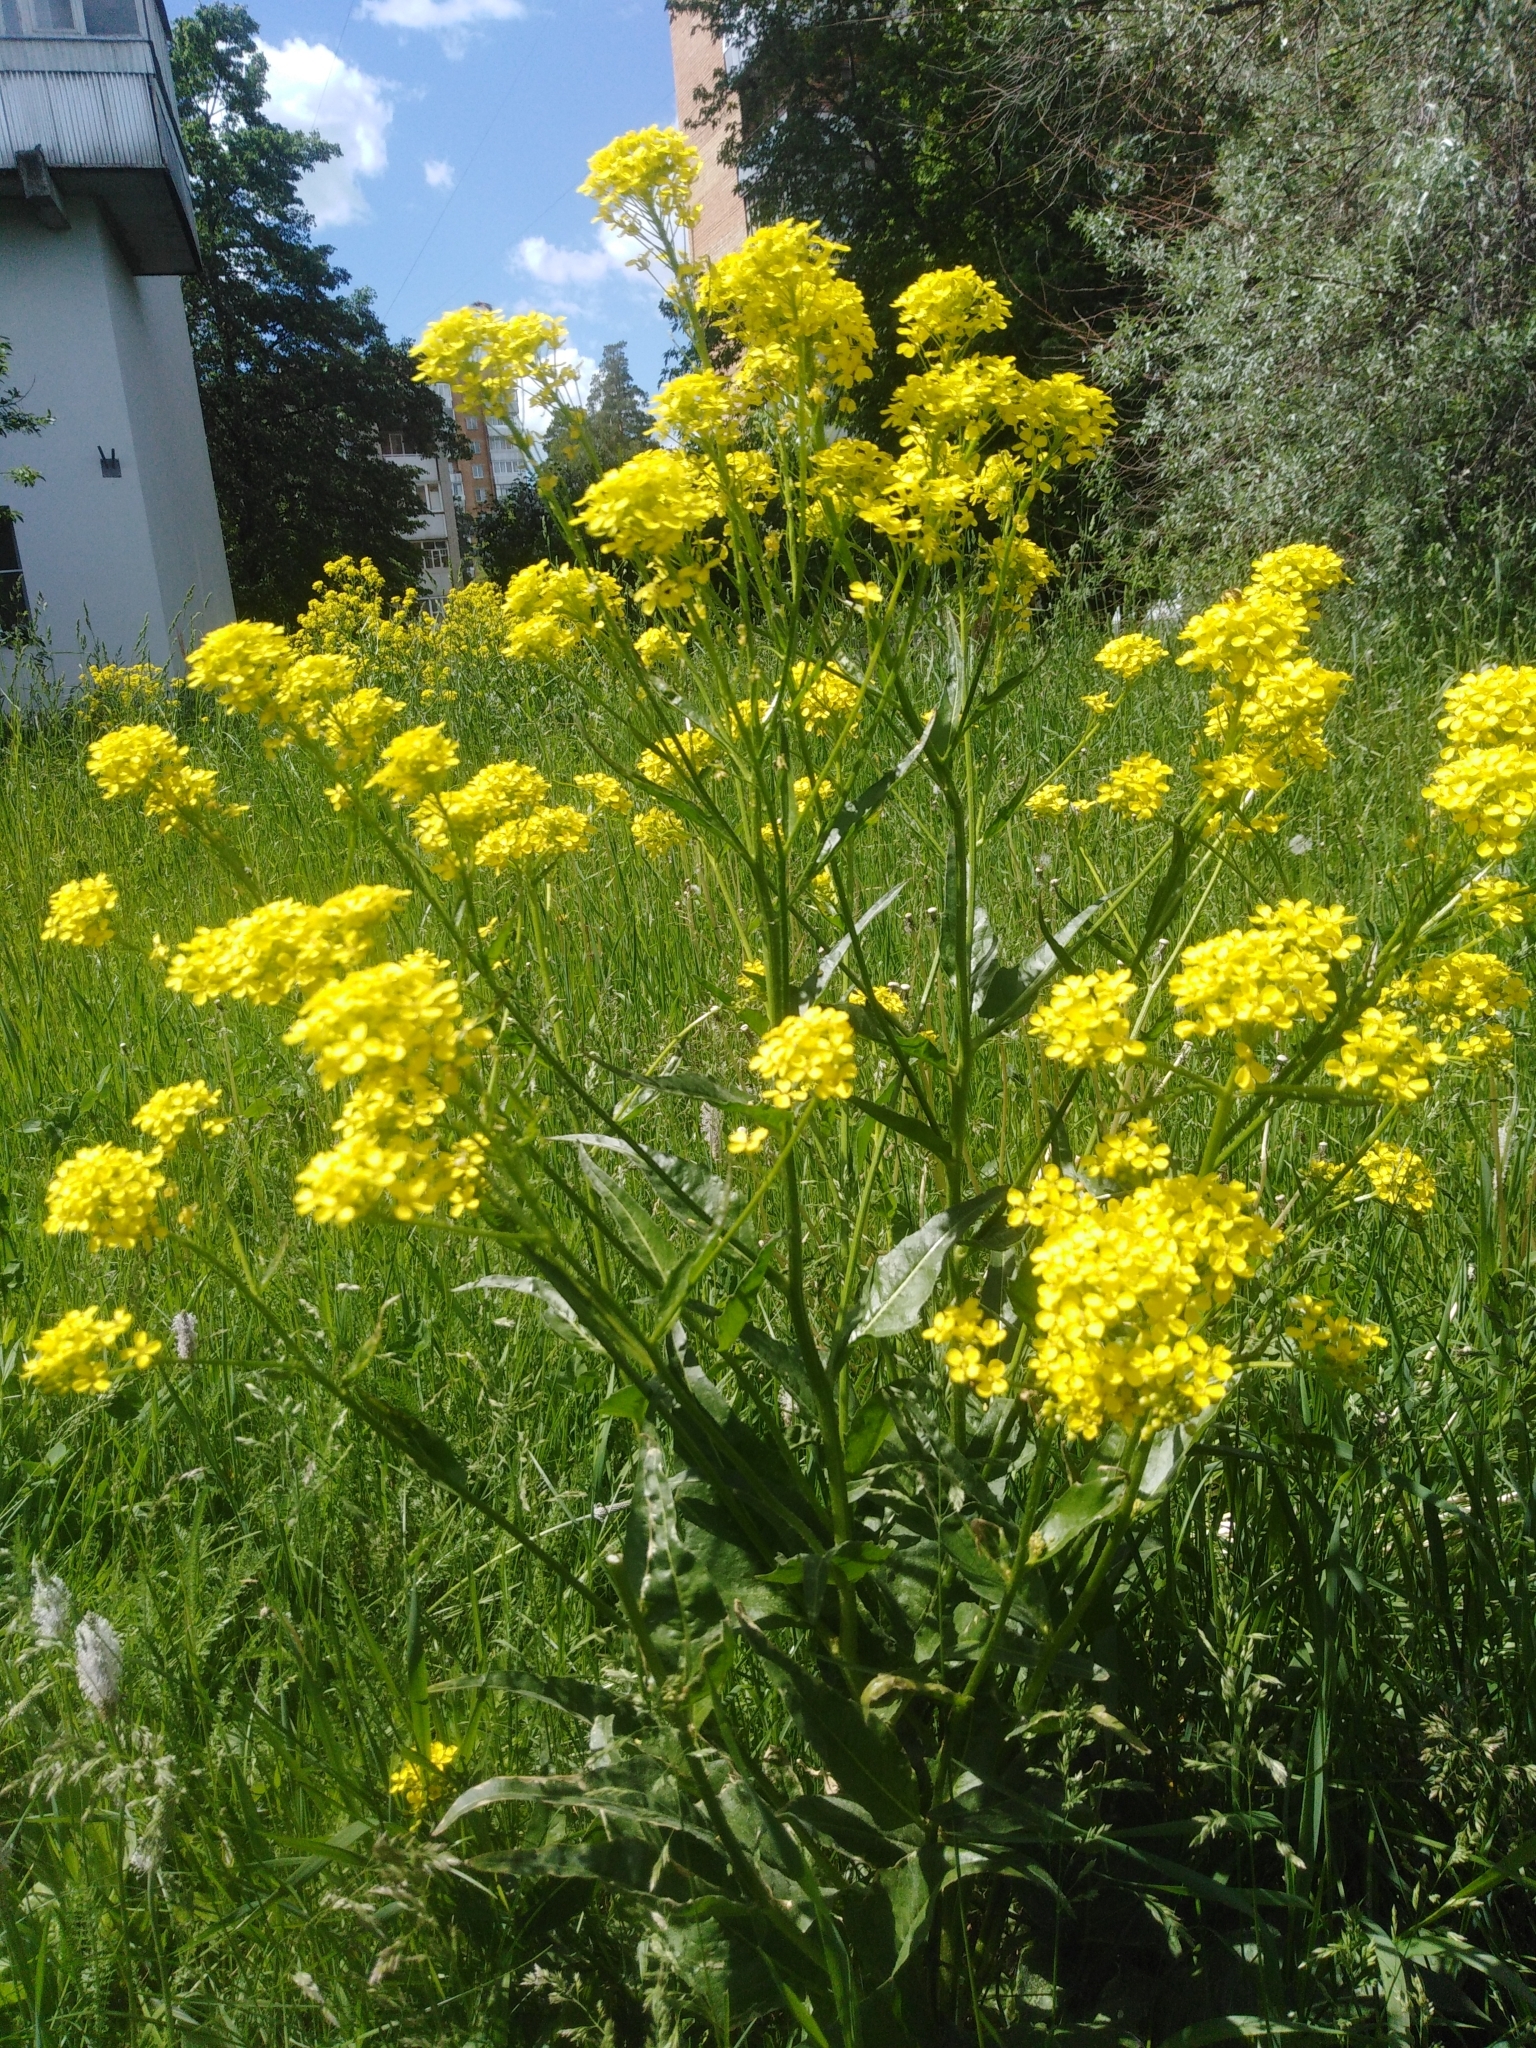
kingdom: Plantae
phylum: Tracheophyta
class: Magnoliopsida
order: Brassicales
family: Brassicaceae
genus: Bunias
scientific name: Bunias orientalis
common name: Warty-cabbage
